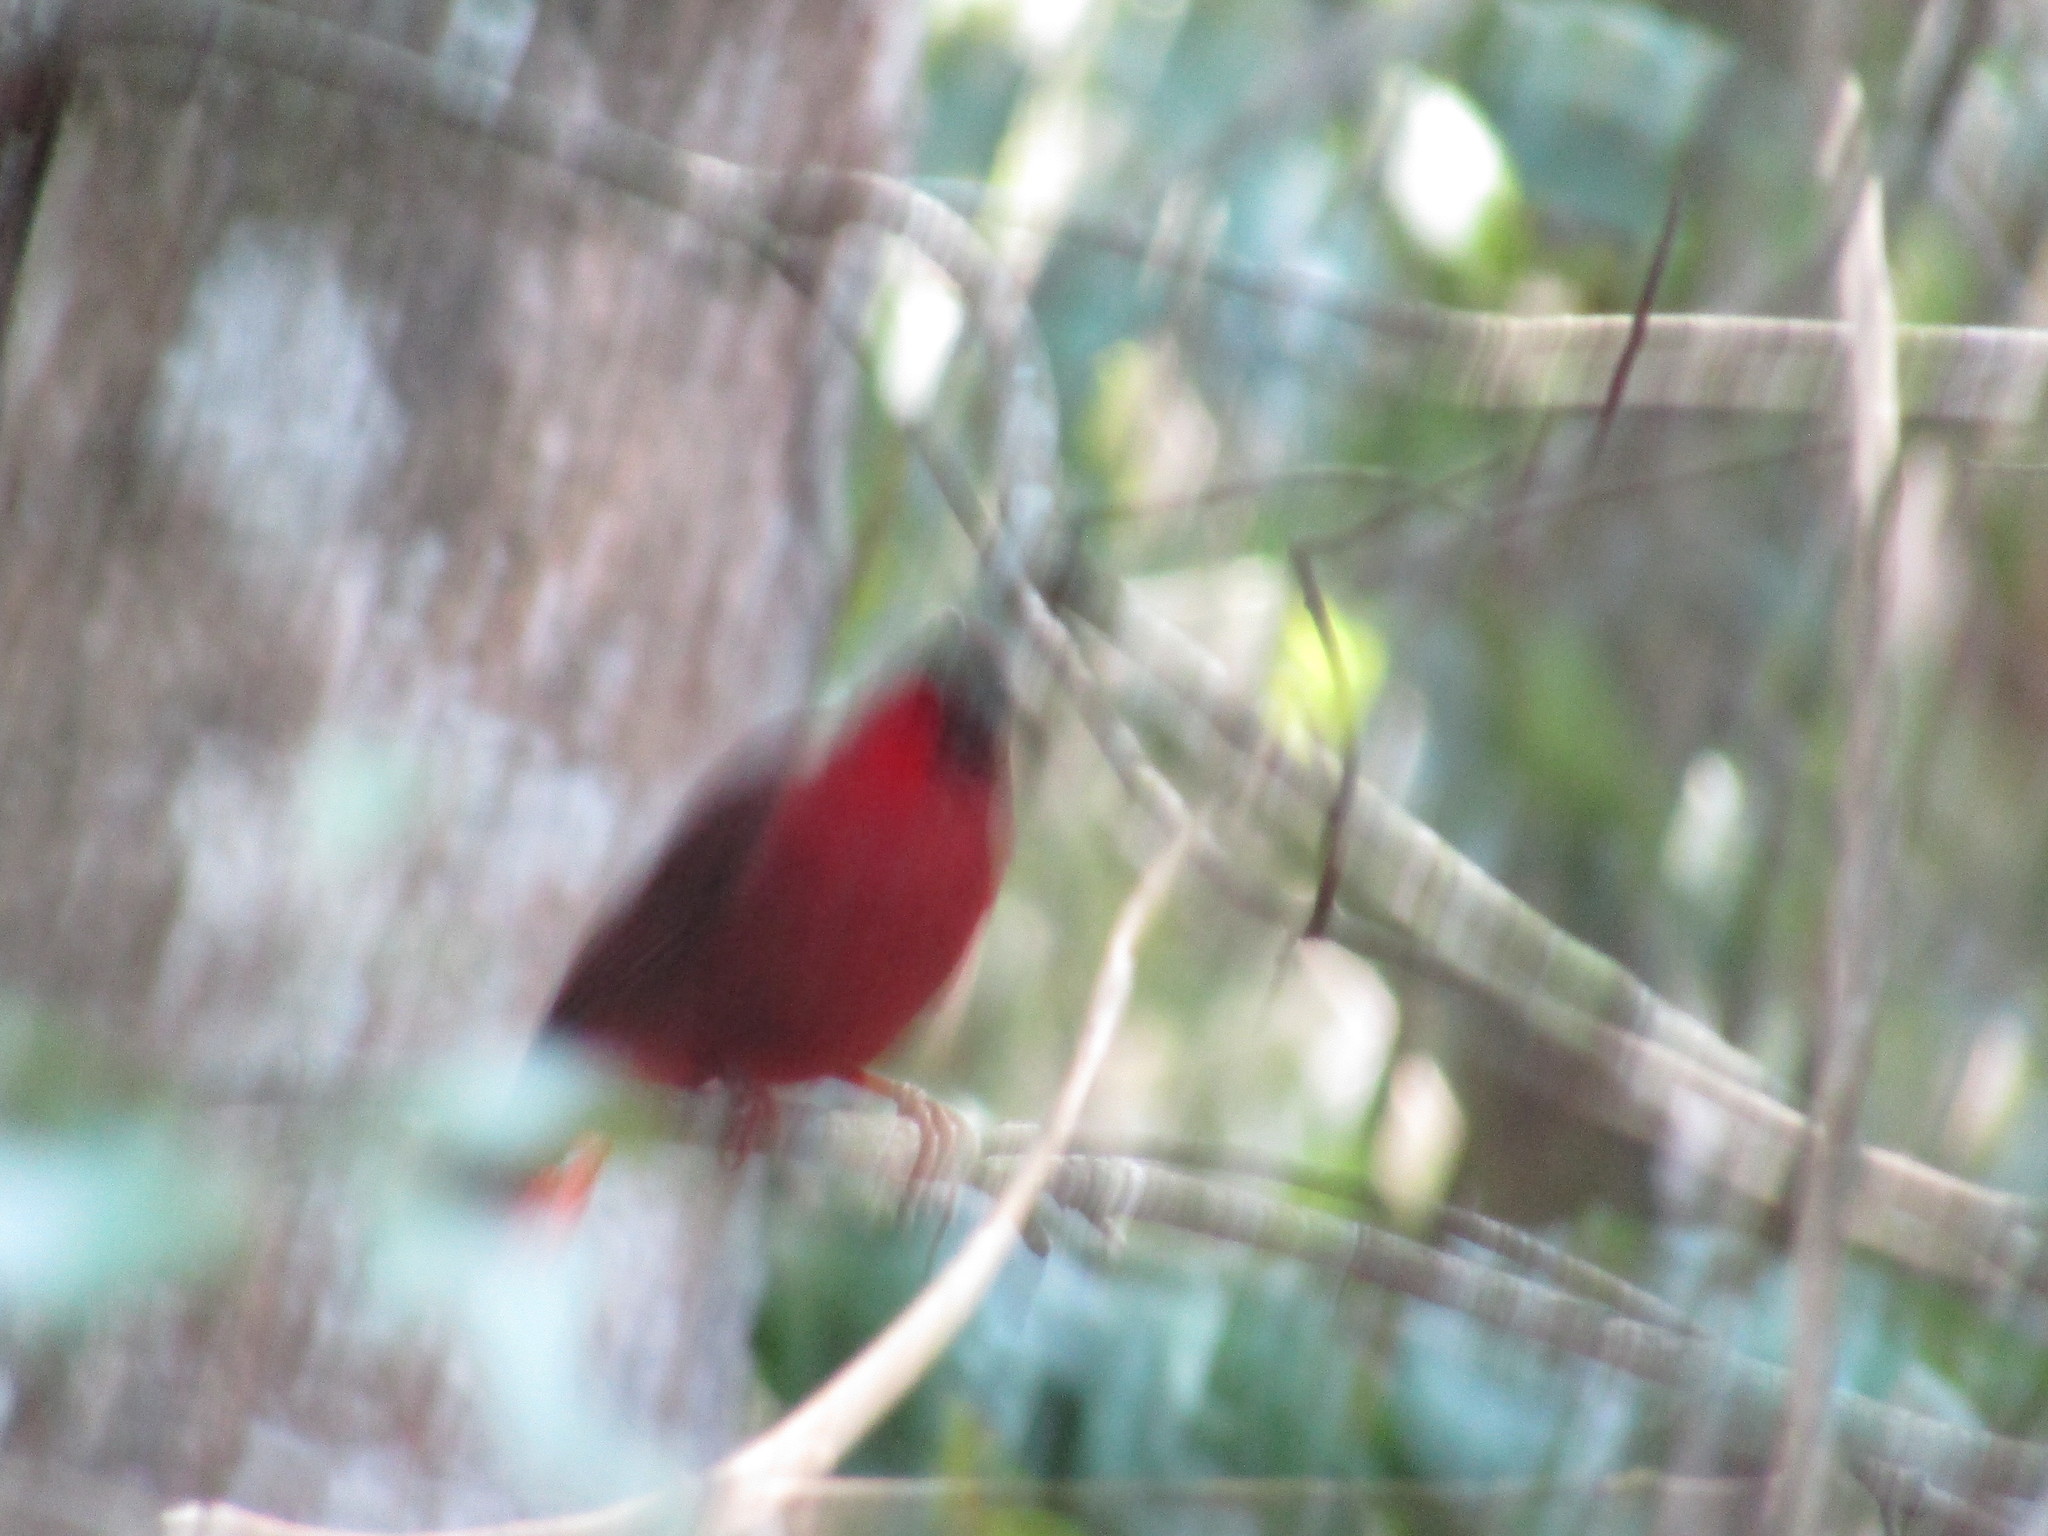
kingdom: Animalia
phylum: Chordata
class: Aves
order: Passeriformes
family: Cardinalidae
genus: Habia
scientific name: Habia
